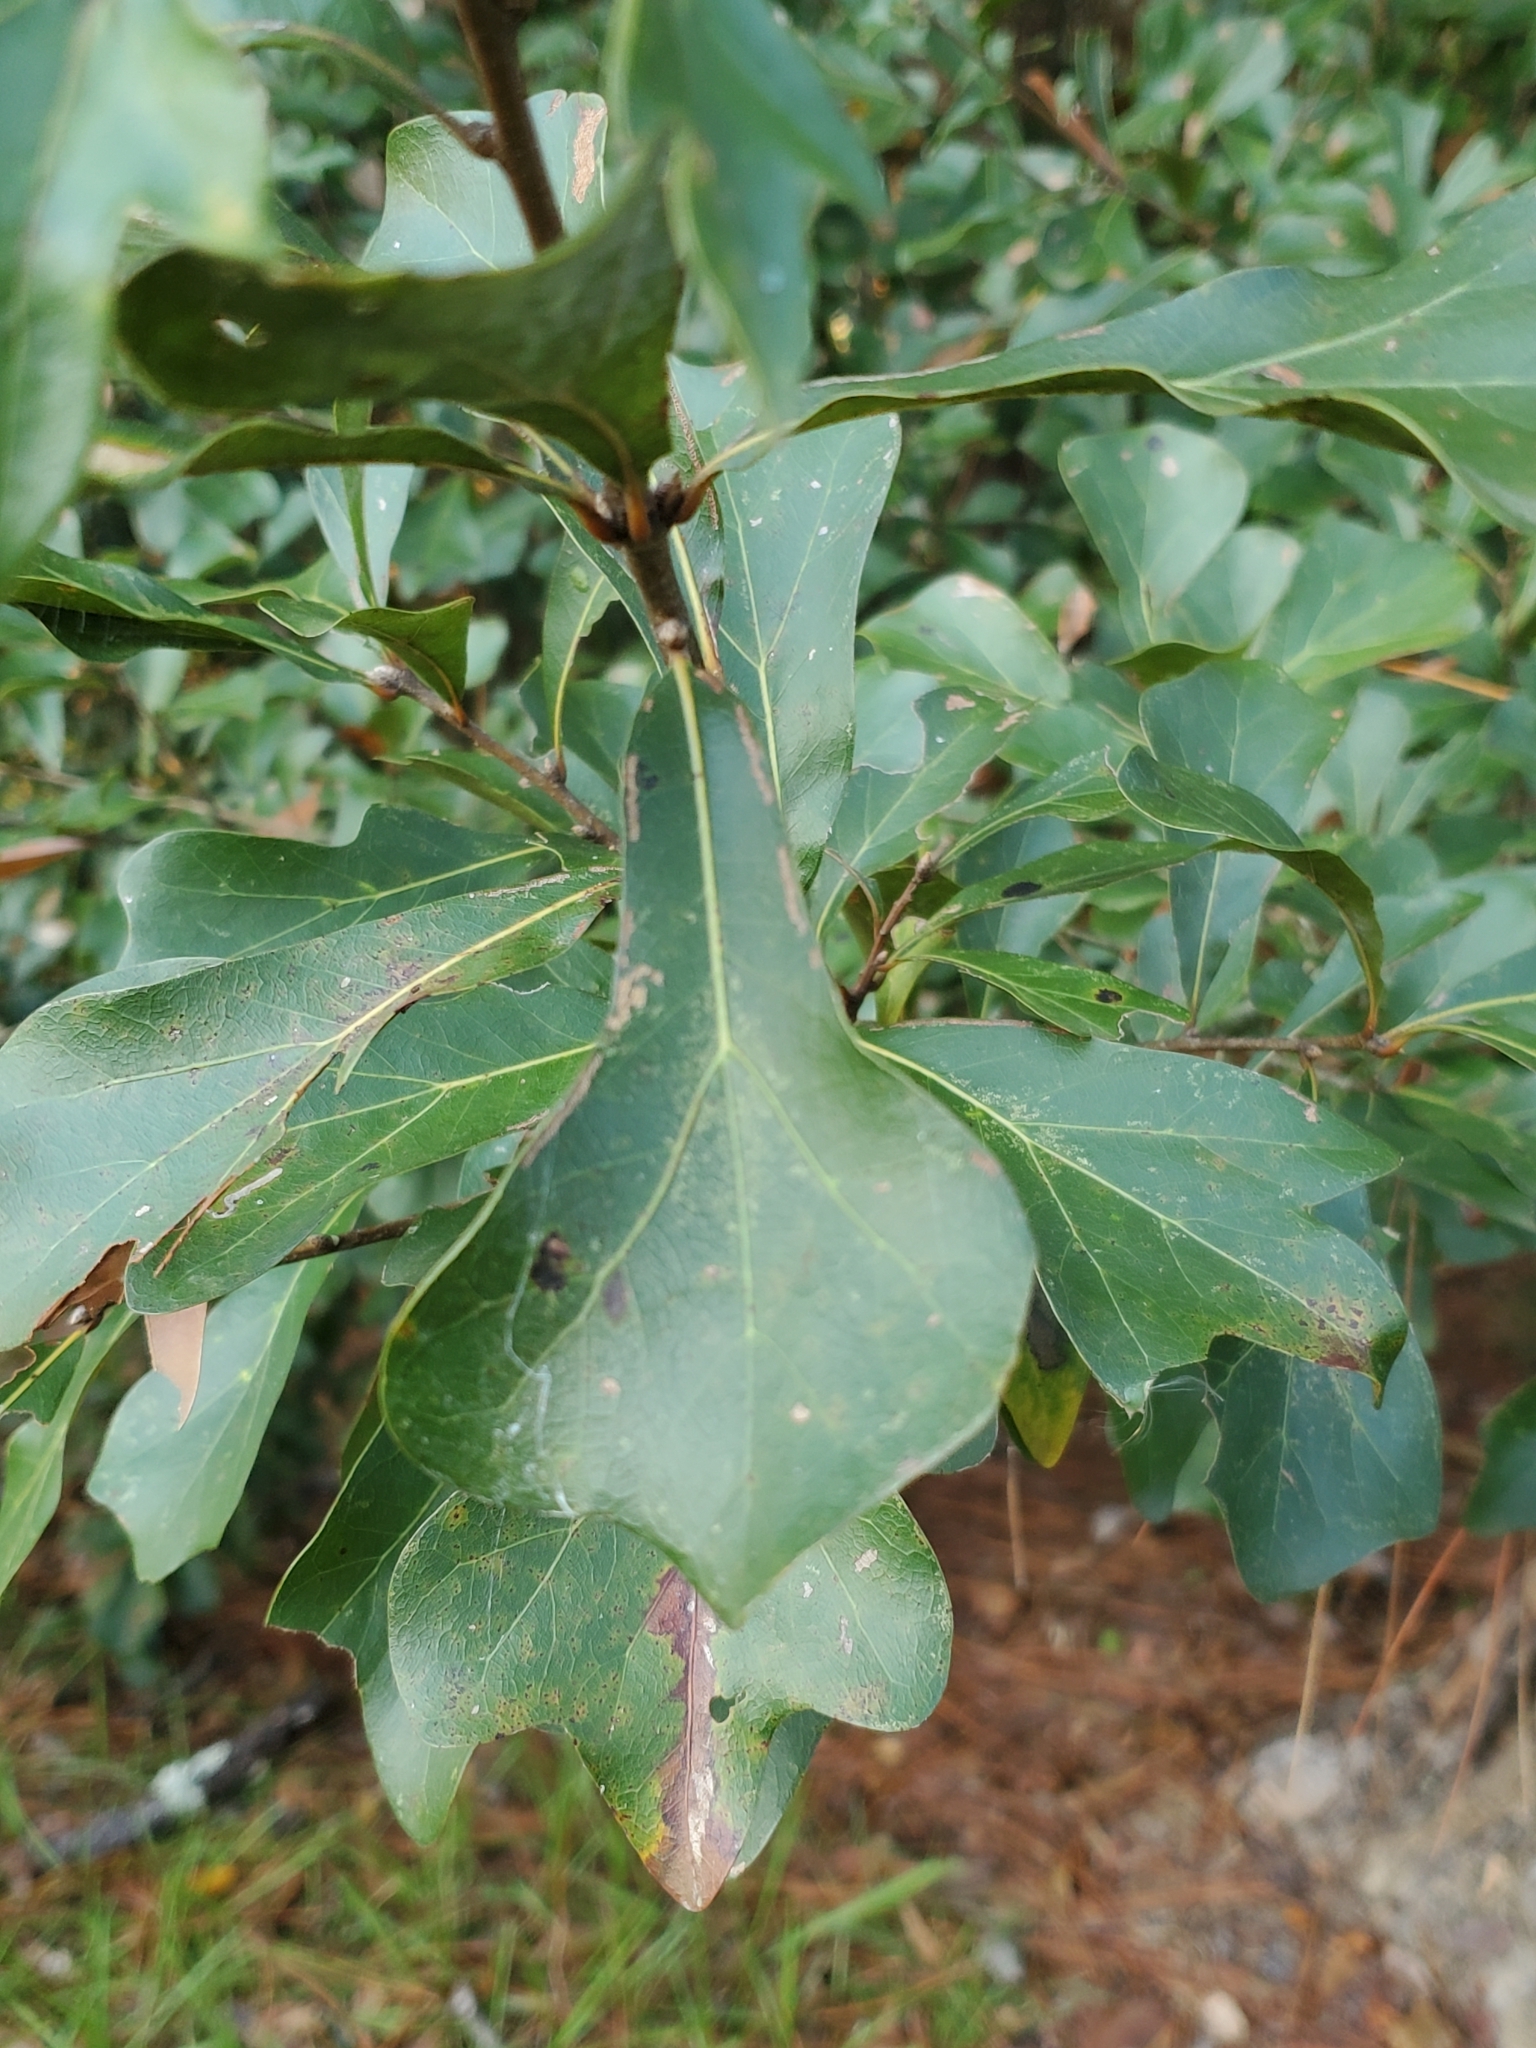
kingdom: Plantae
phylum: Tracheophyta
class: Magnoliopsida
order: Fagales
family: Fagaceae
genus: Quercus
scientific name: Quercus nigra
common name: Water oak
